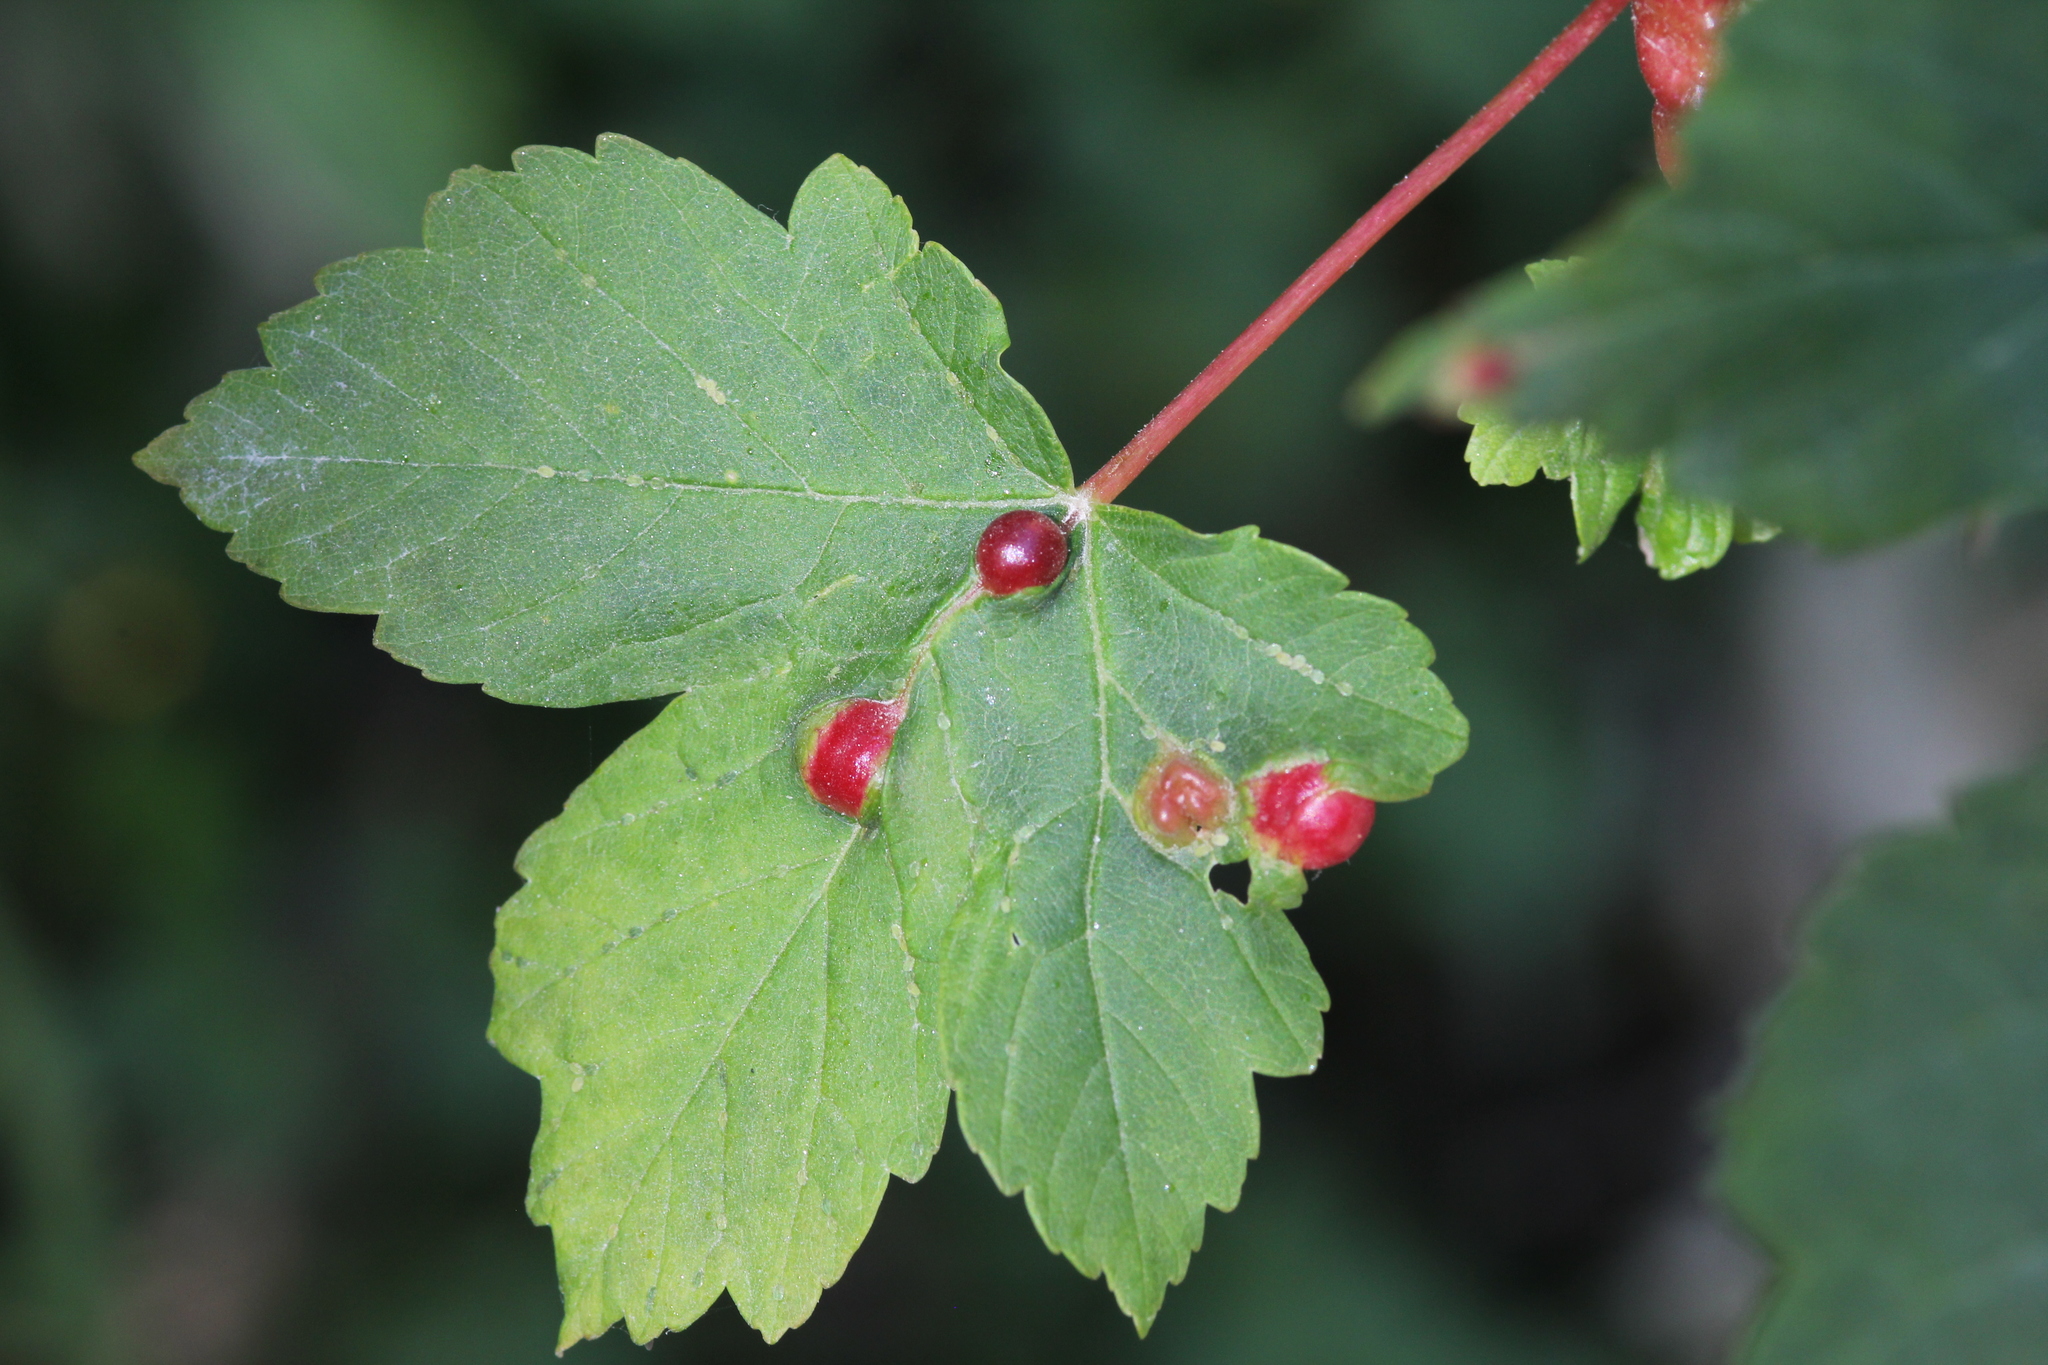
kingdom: Animalia
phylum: Arthropoda
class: Insecta
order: Hymenoptera
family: Cynipidae
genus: Pediaspis
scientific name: Pediaspis aceris
